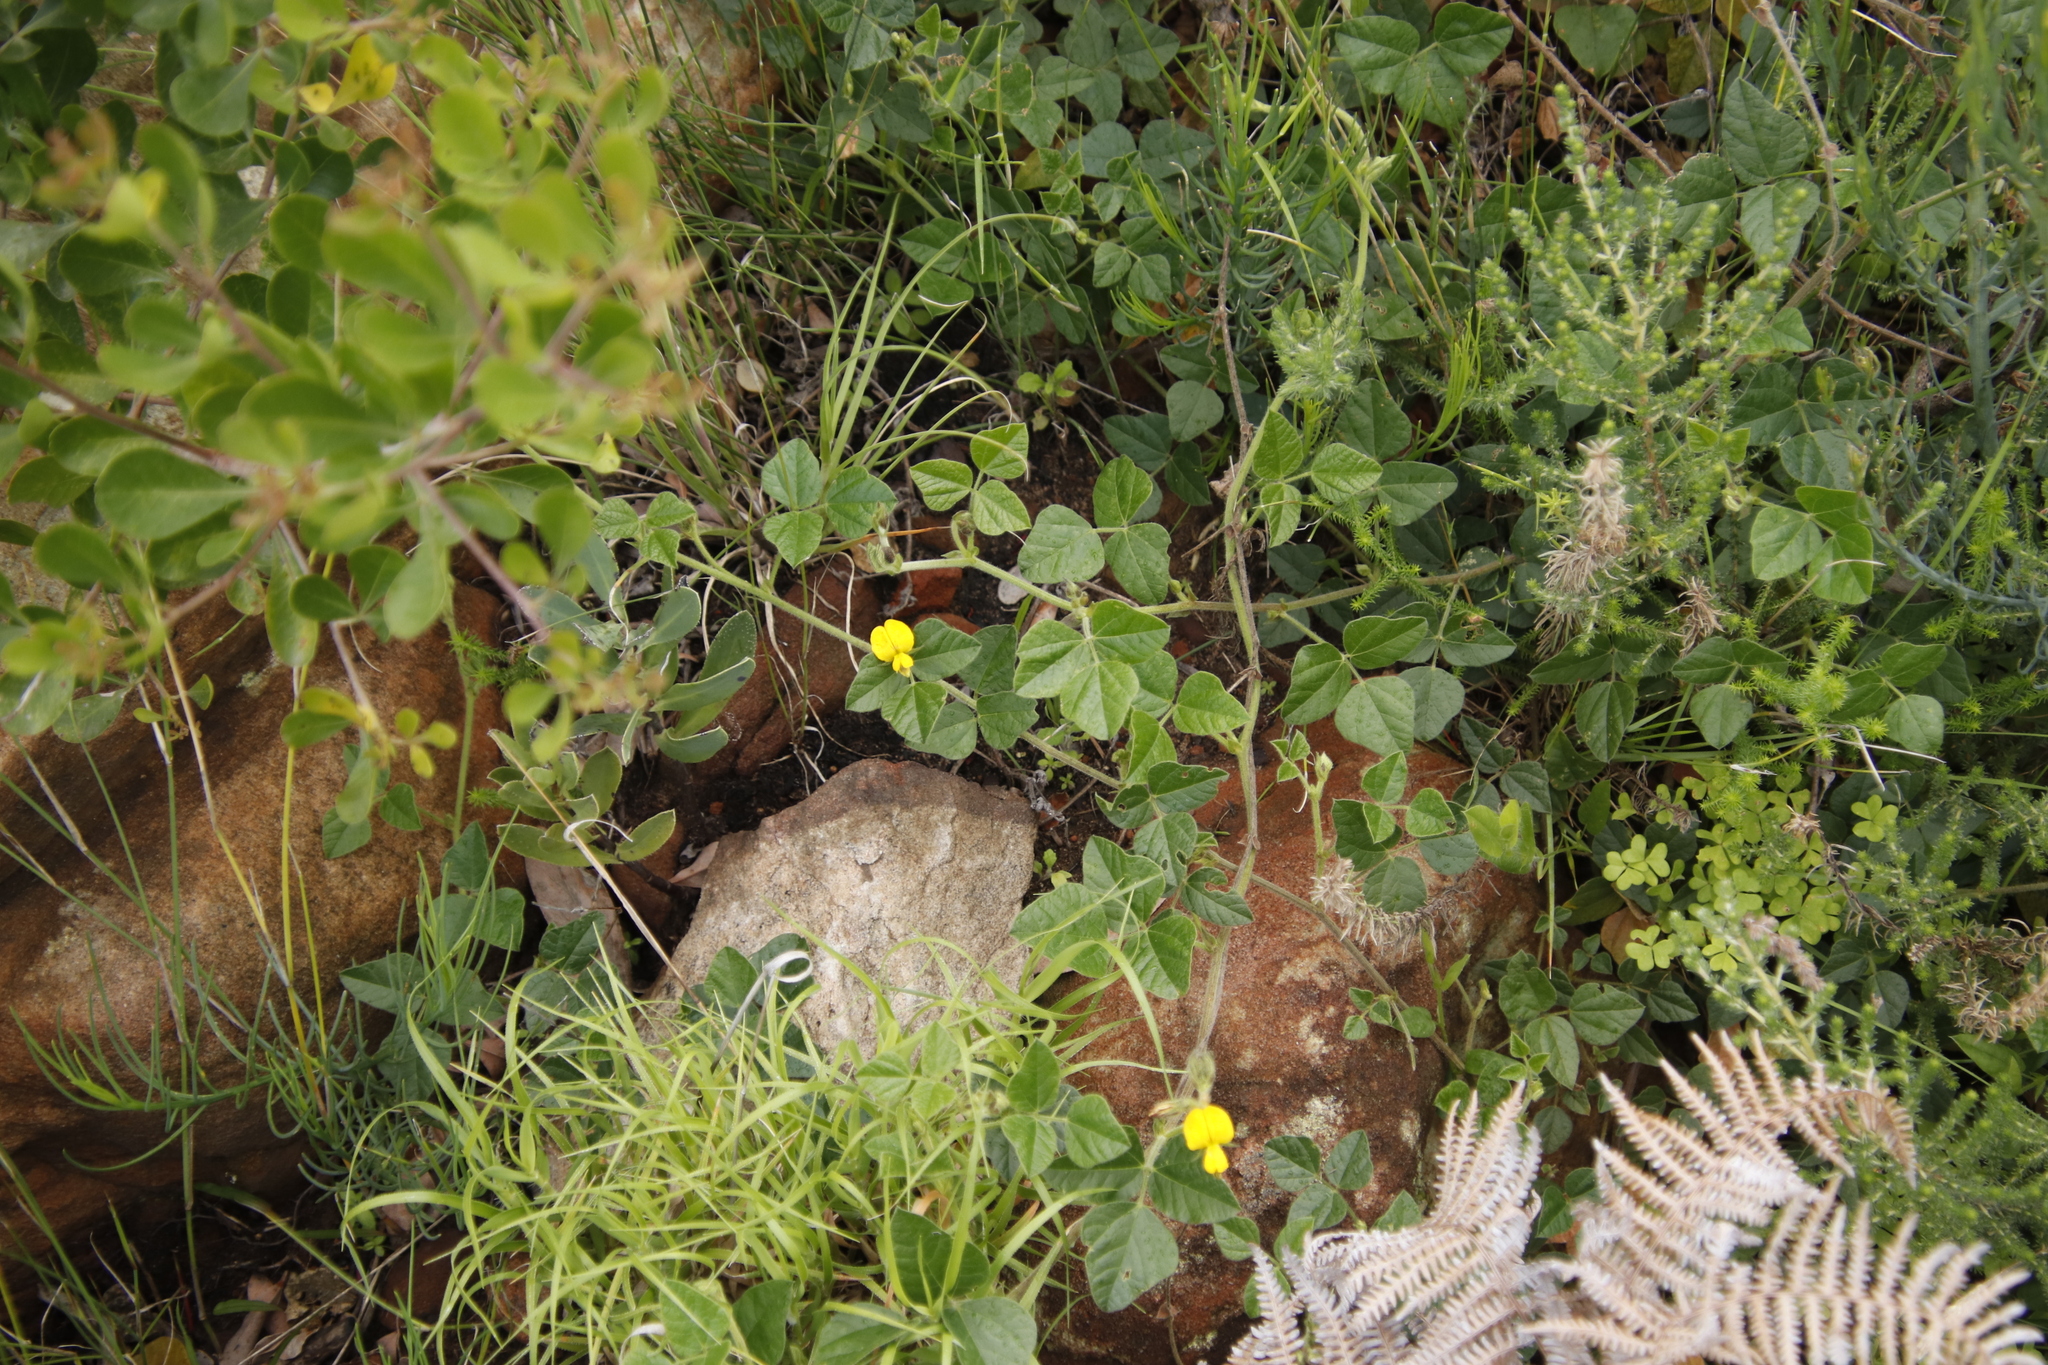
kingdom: Plantae
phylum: Tracheophyta
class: Magnoliopsida
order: Fabales
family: Fabaceae
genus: Bolusafra
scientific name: Bolusafra bituminosa
